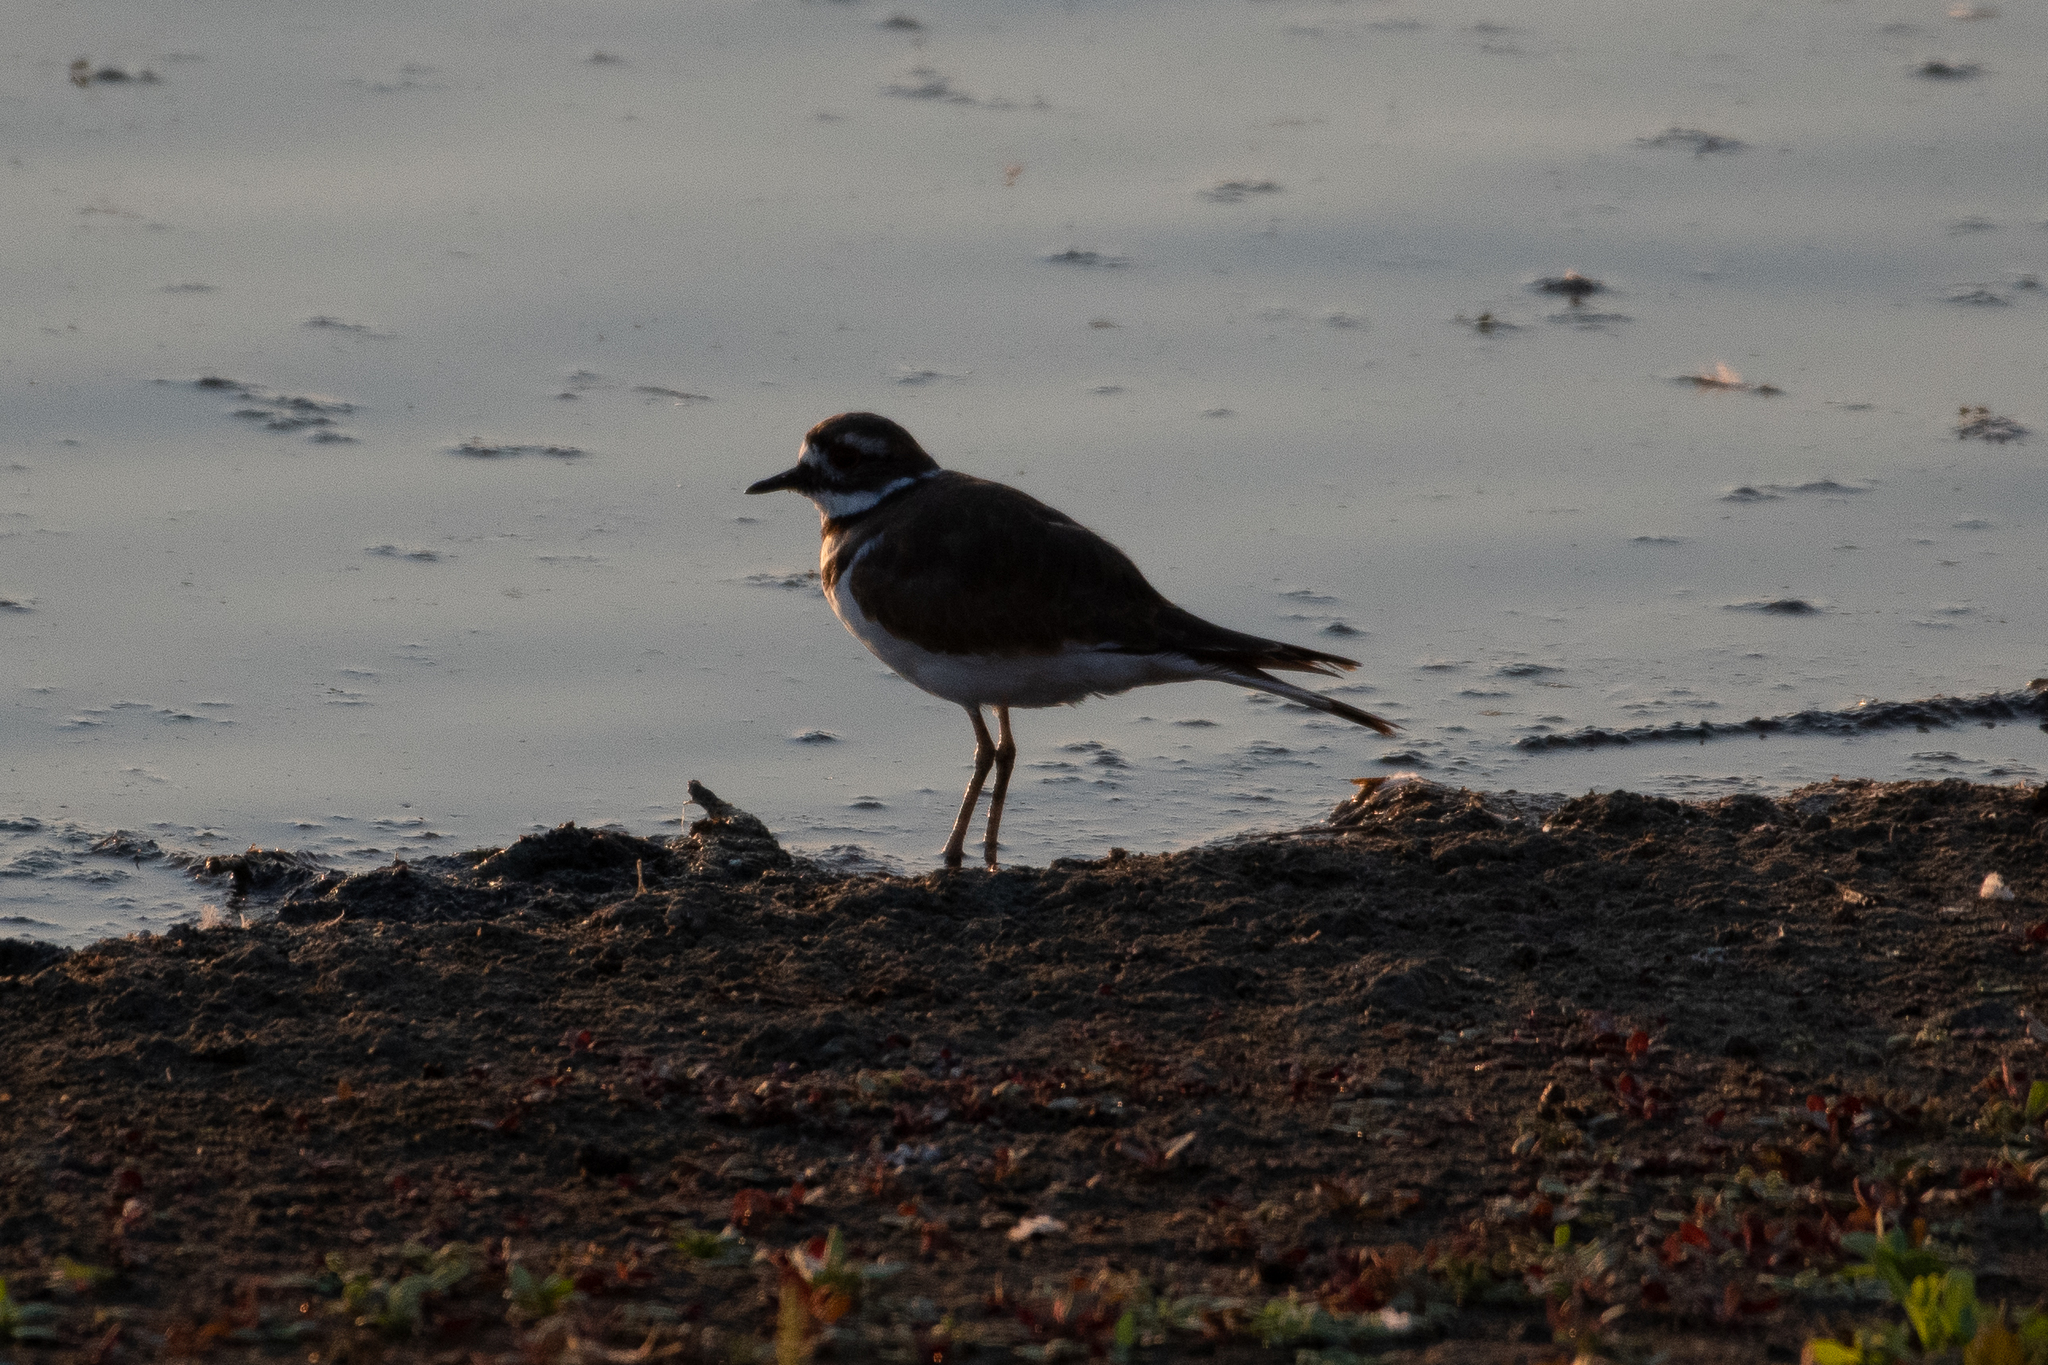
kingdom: Animalia
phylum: Chordata
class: Aves
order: Charadriiformes
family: Charadriidae
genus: Charadrius
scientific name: Charadrius vociferus
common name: Killdeer
